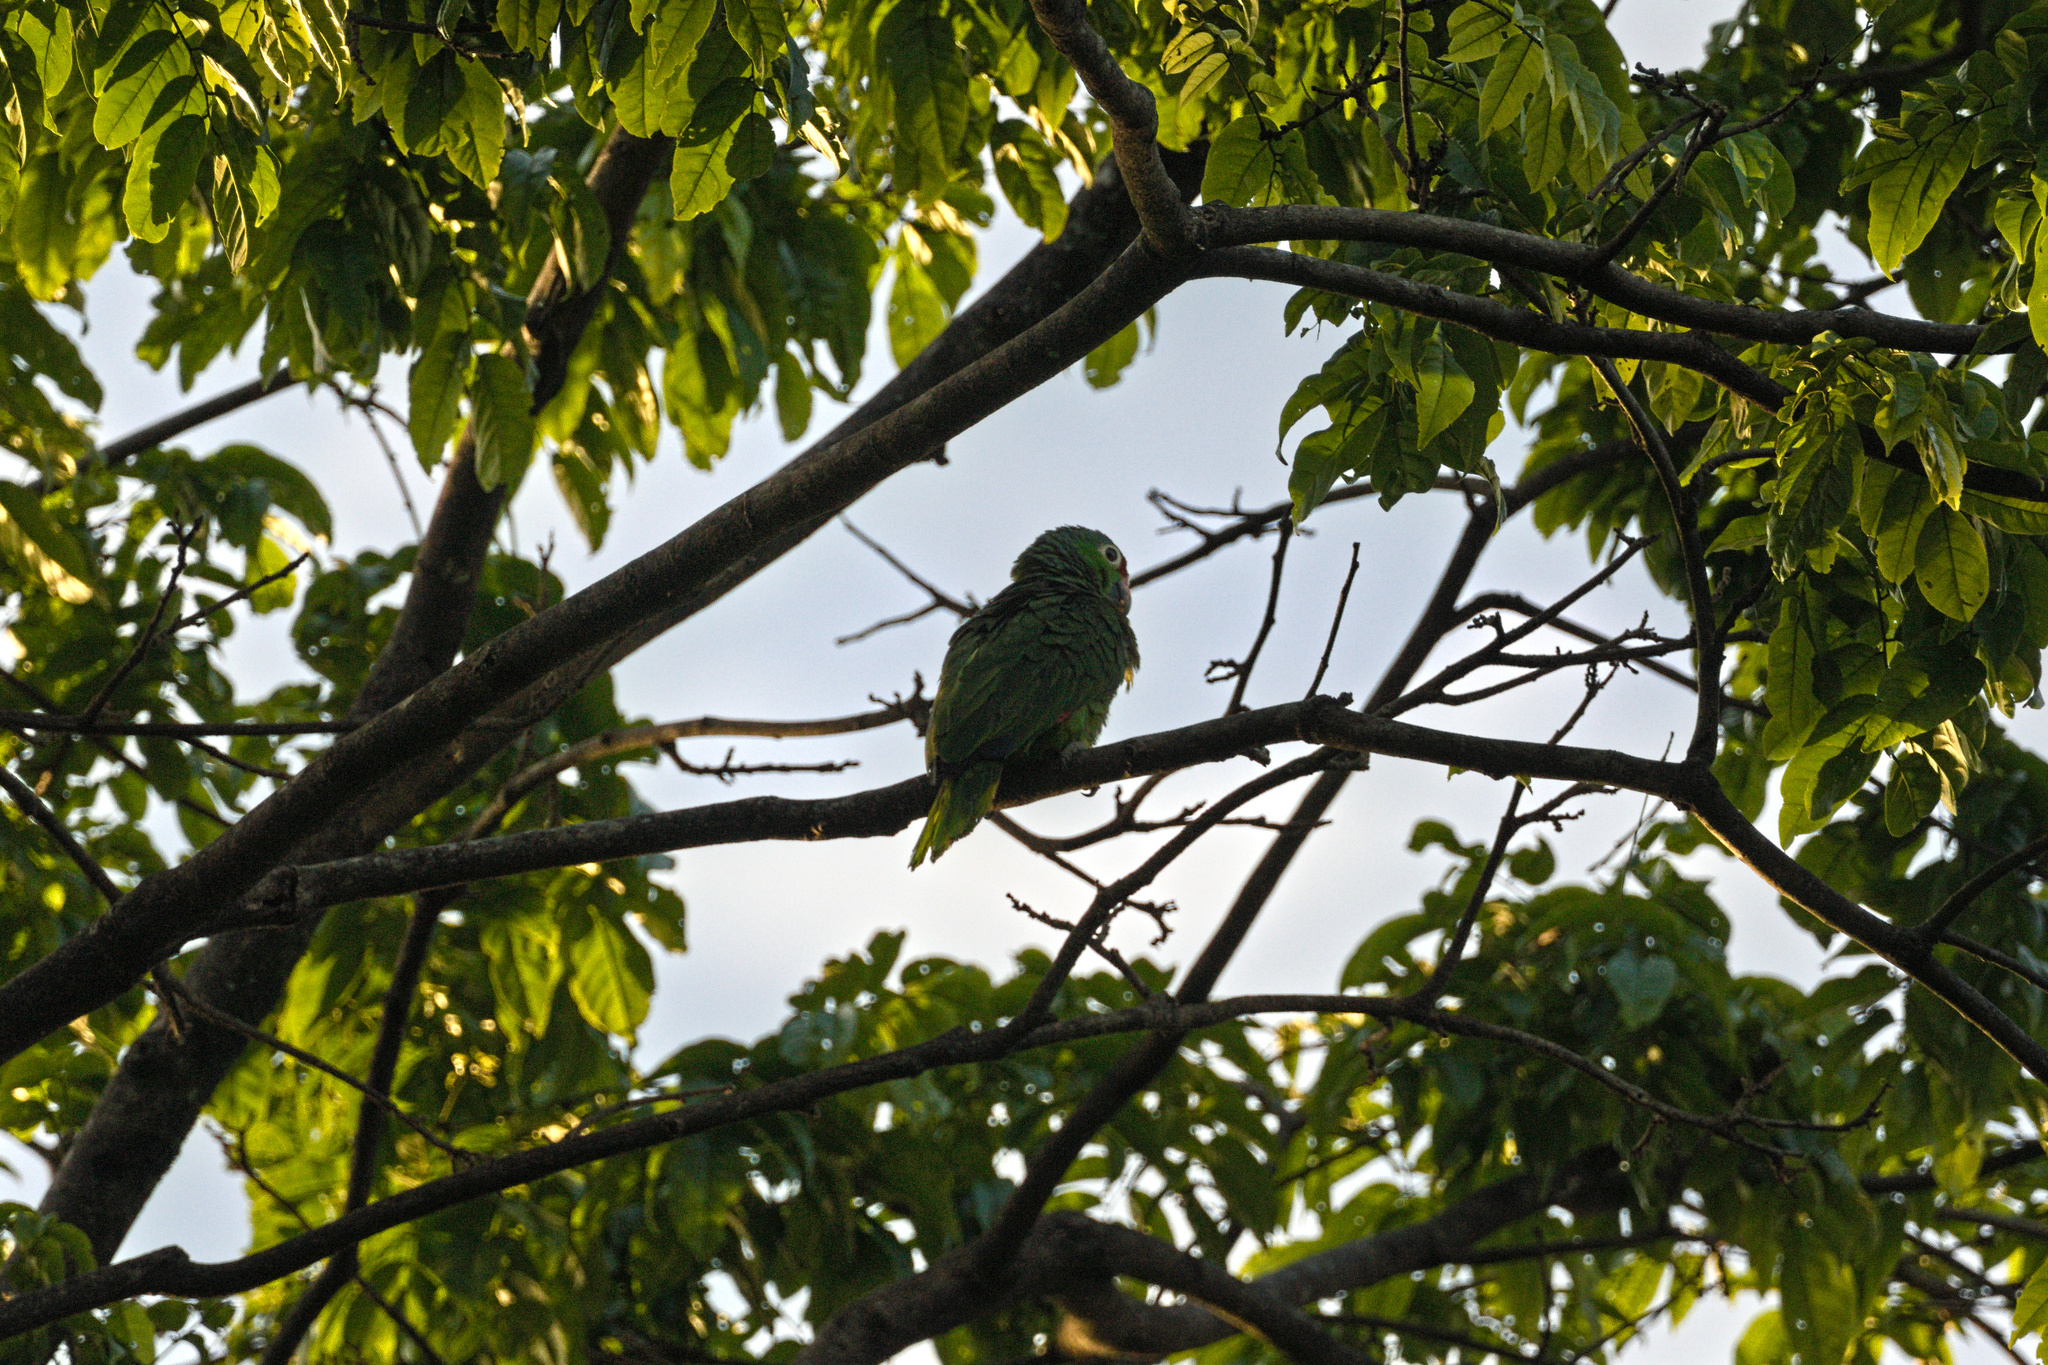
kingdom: Animalia
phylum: Chordata
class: Aves
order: Psittaciformes
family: Psittacidae
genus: Amazona
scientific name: Amazona autumnalis
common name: Red-lored amazon
